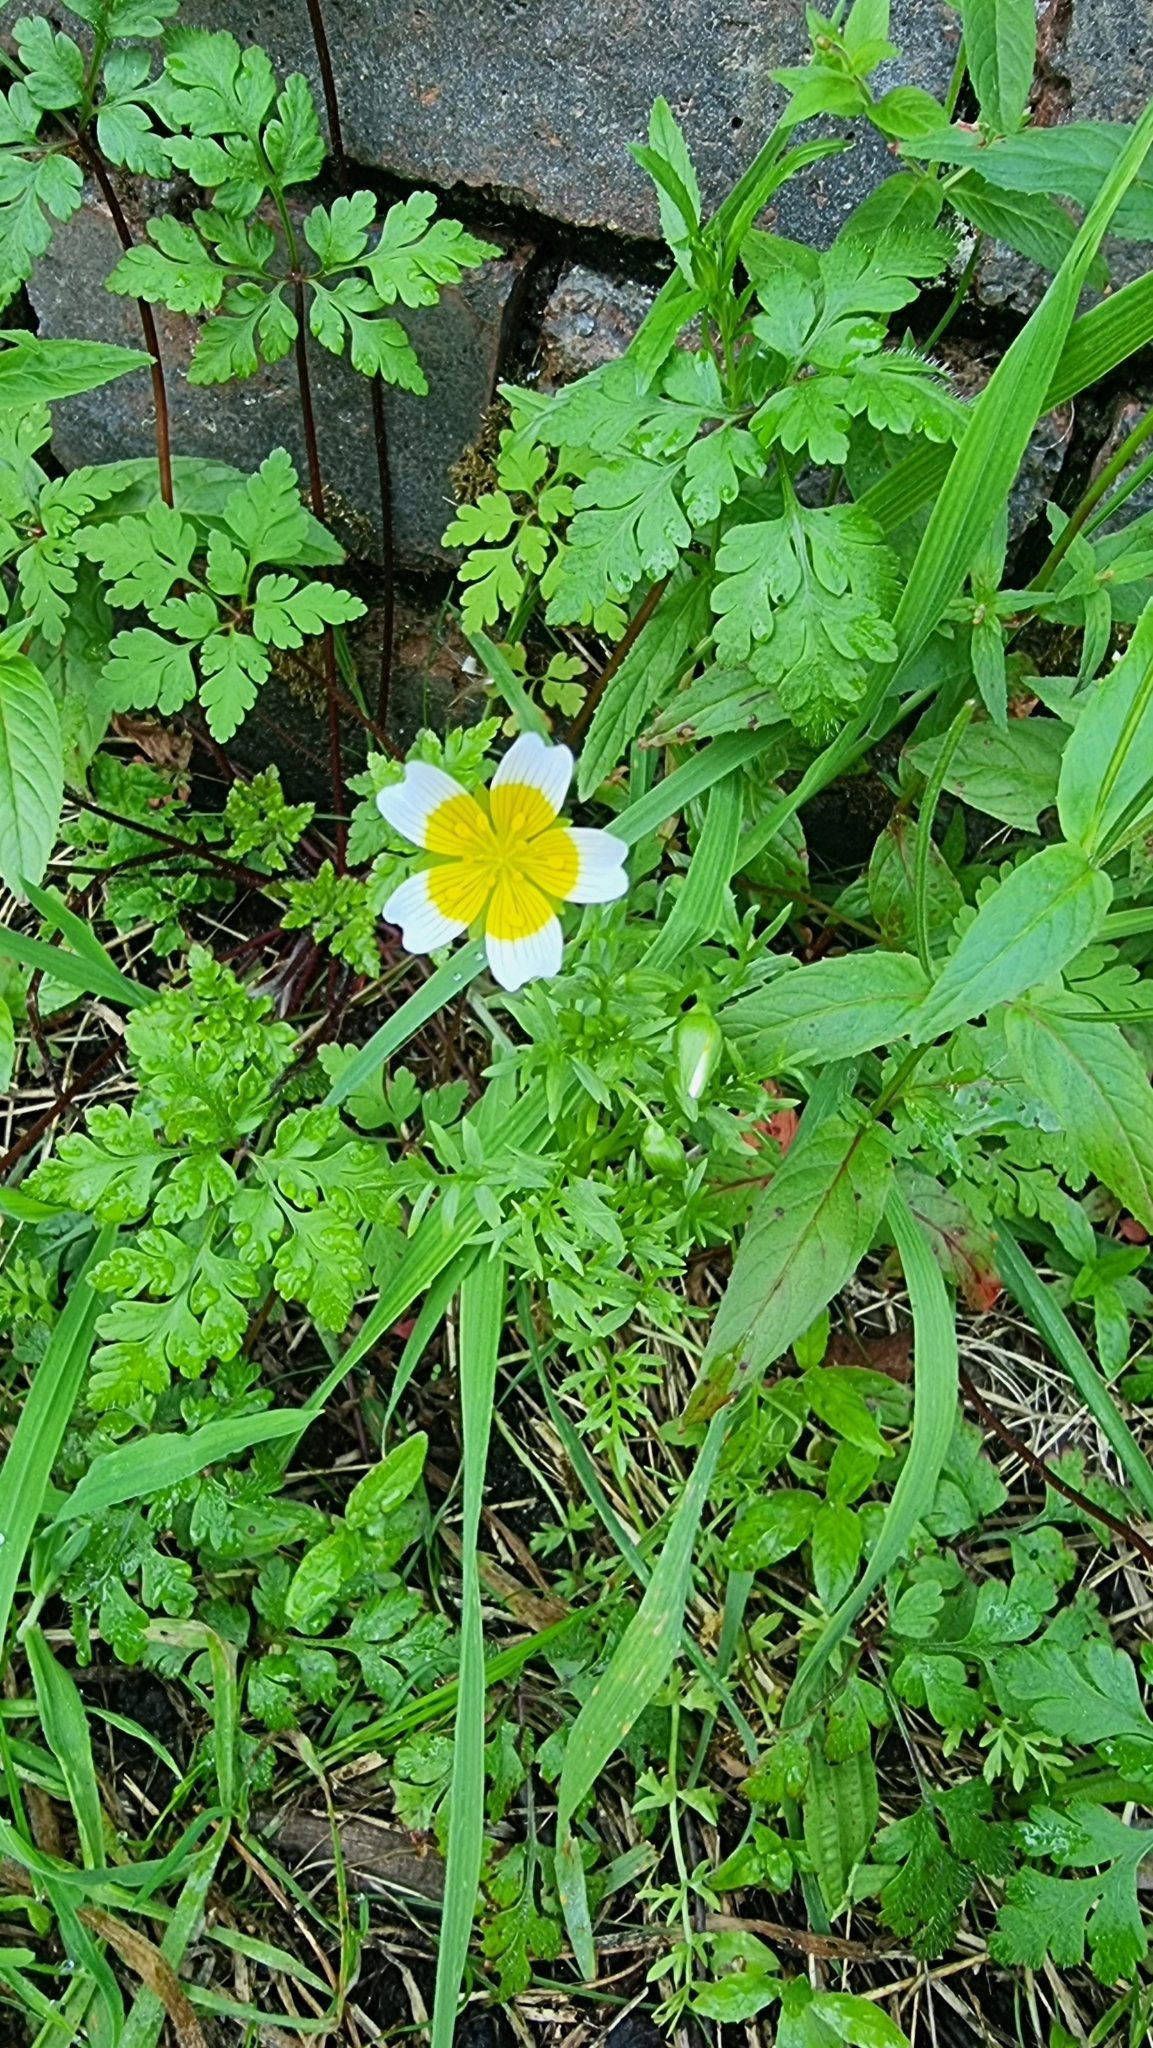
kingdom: Plantae
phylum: Tracheophyta
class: Magnoliopsida
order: Brassicales
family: Limnanthaceae
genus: Limnanthes
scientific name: Limnanthes douglasii
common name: Meadow-foam
